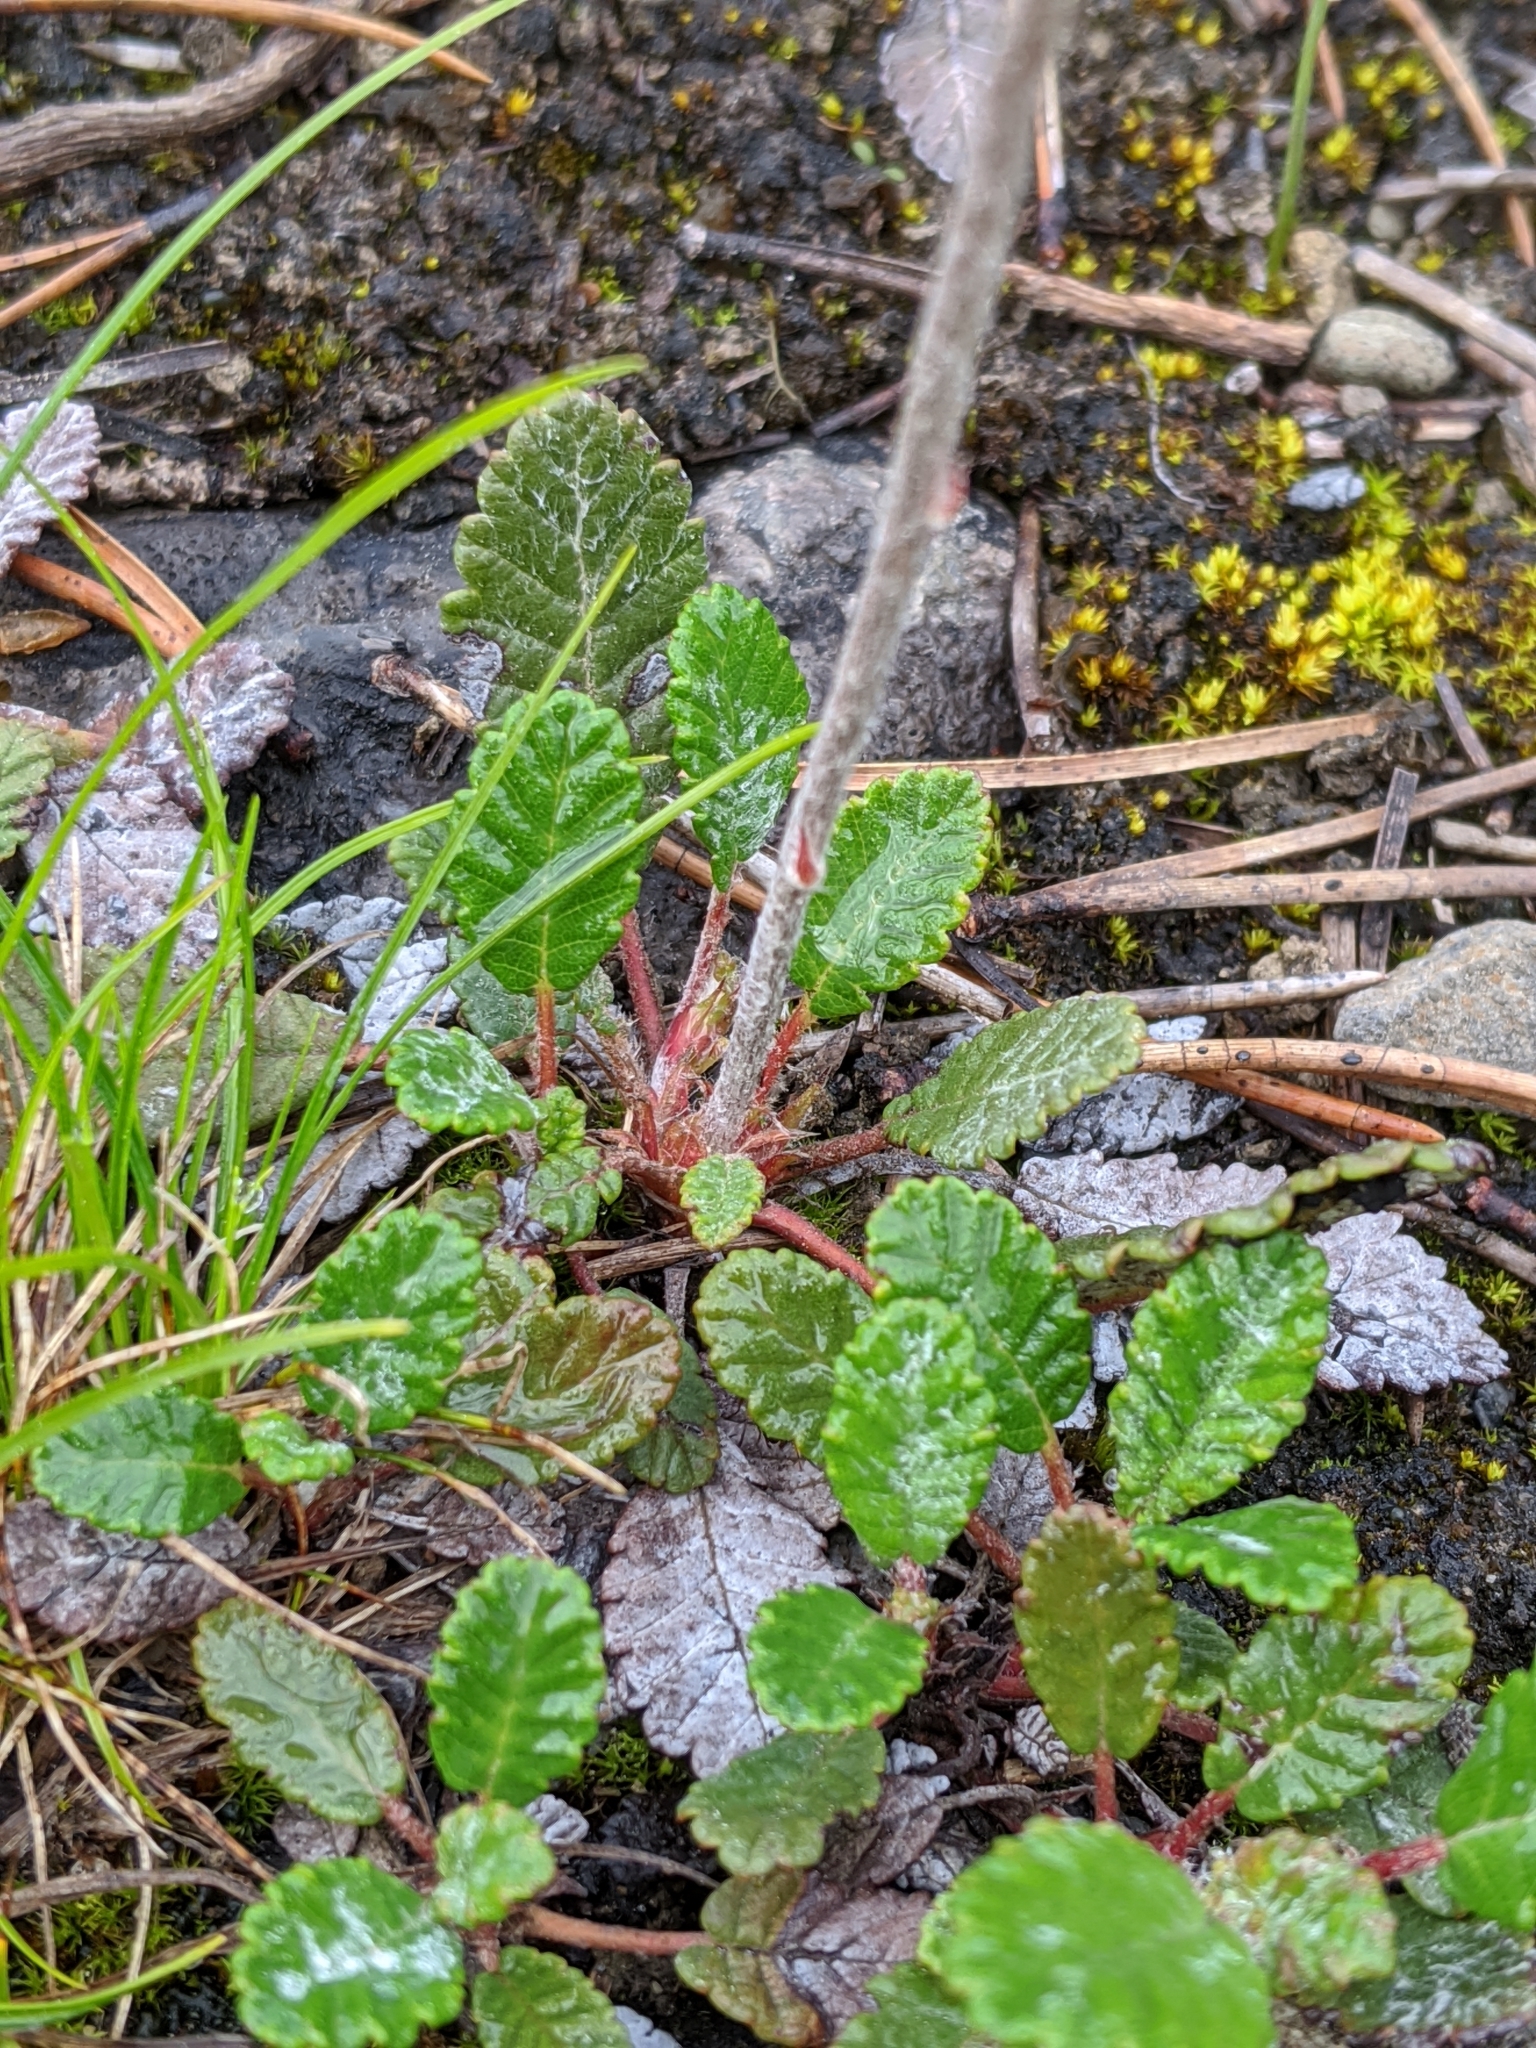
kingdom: Plantae
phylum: Tracheophyta
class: Magnoliopsida
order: Rosales
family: Rosaceae
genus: Dryas
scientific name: Dryas drummondii
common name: Drummond's dryad
